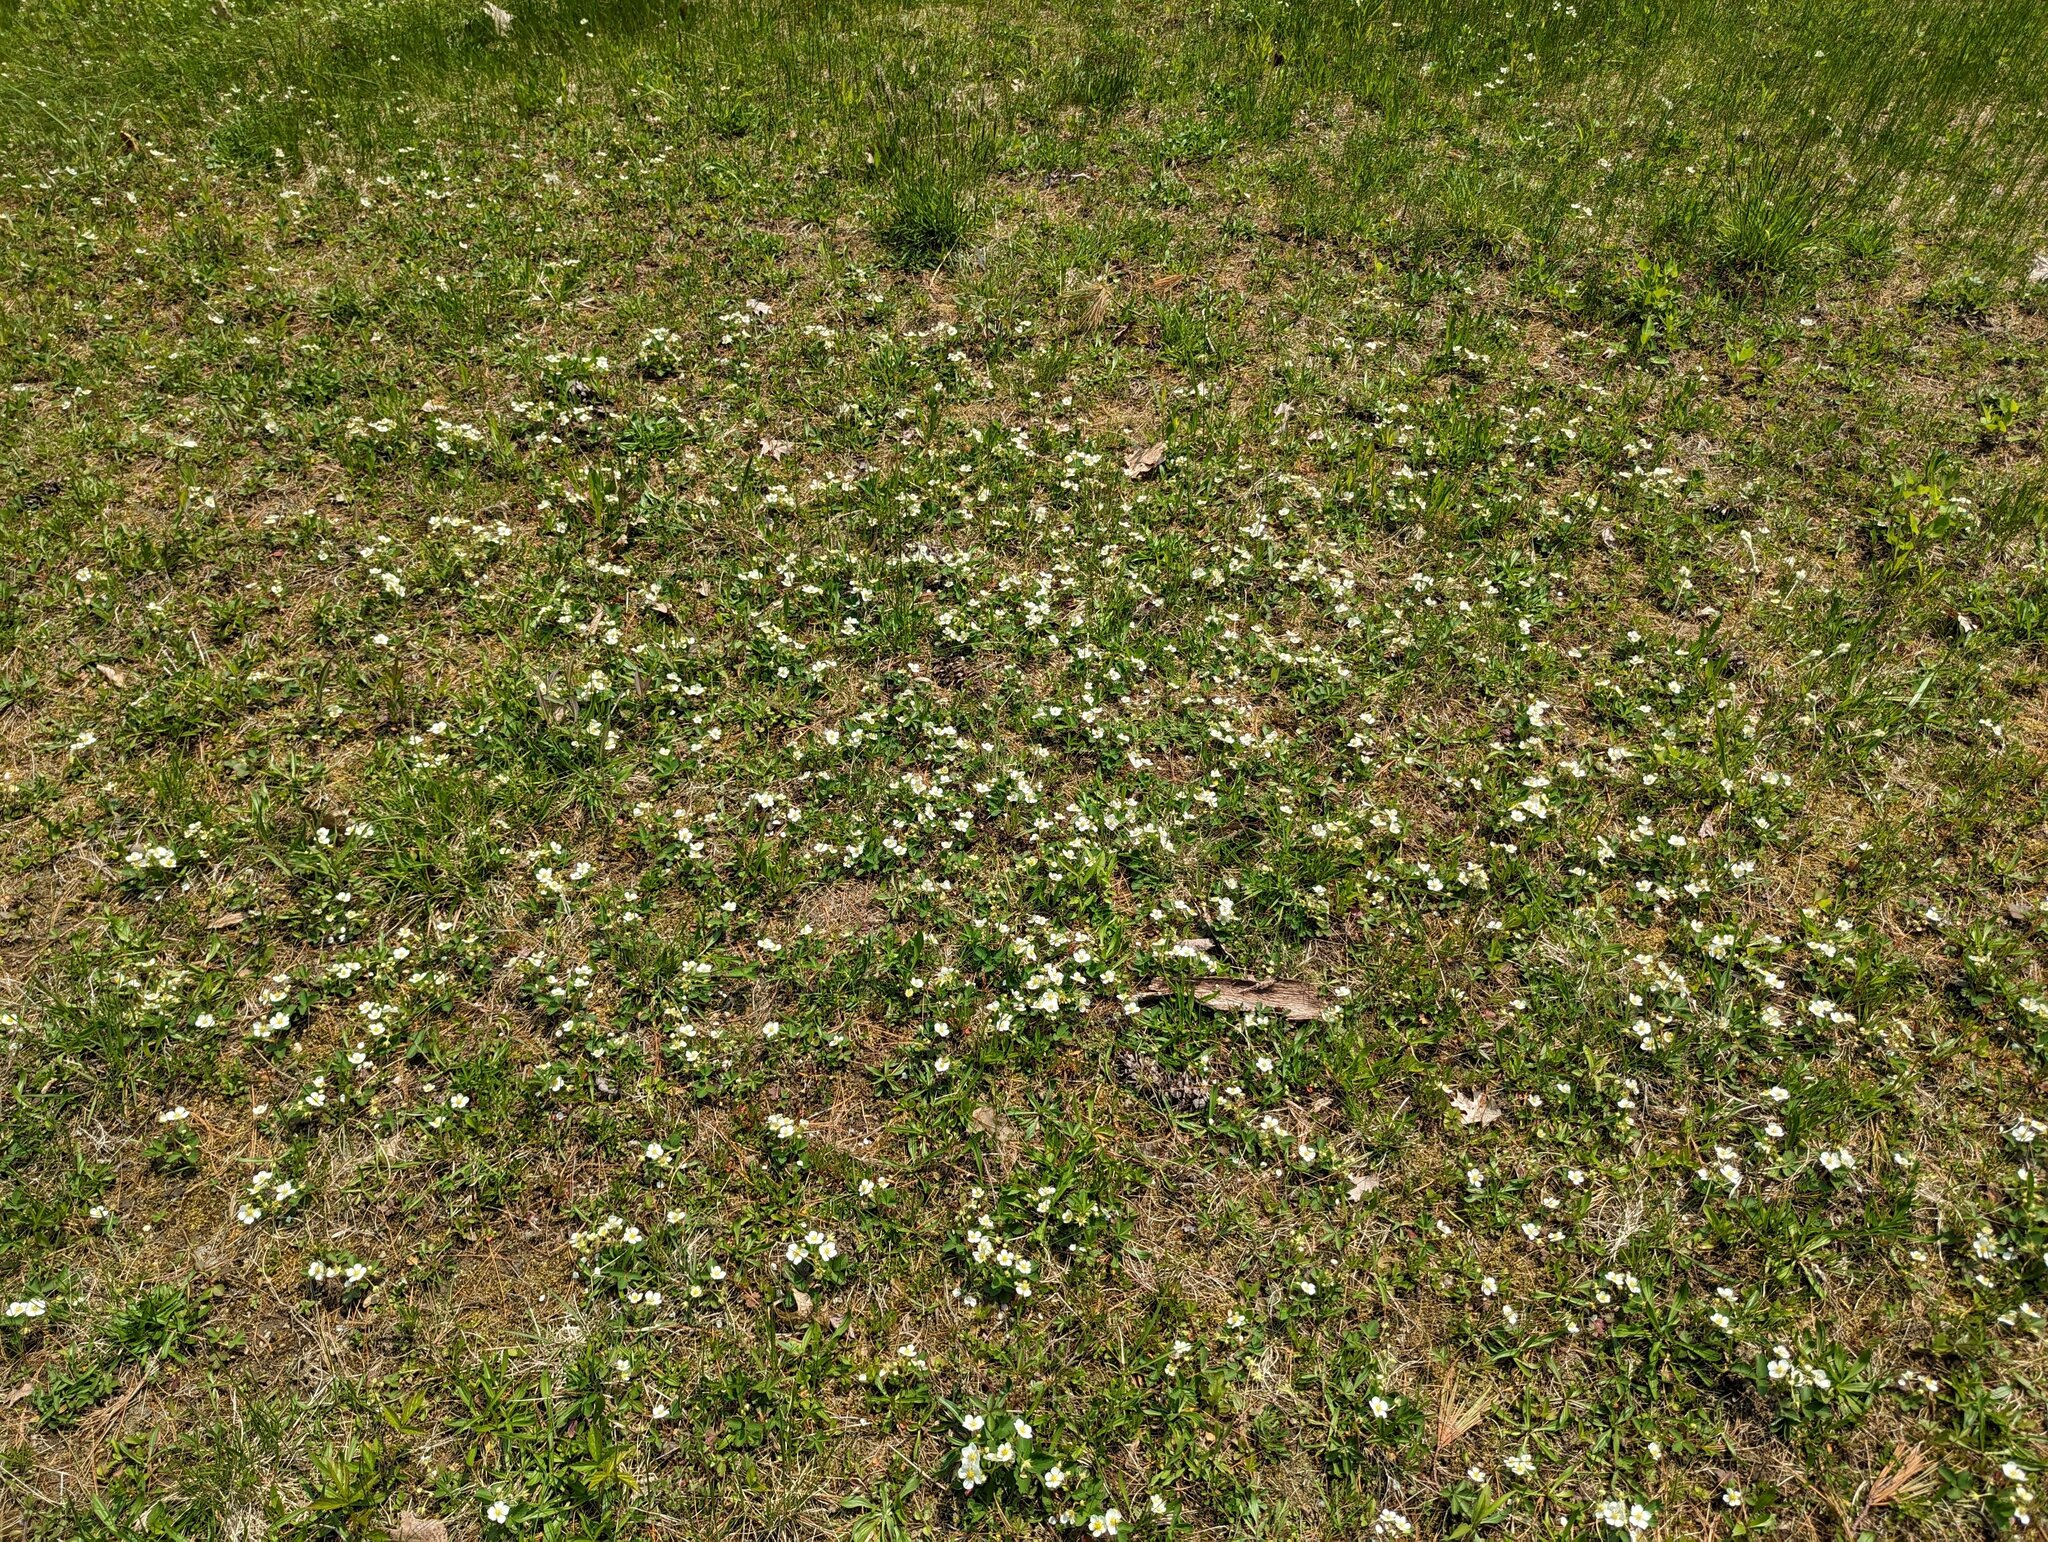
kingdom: Plantae
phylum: Tracheophyta
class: Magnoliopsida
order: Rosales
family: Rosaceae
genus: Fragaria
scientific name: Fragaria virginiana
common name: Thickleaved wild strawberry
